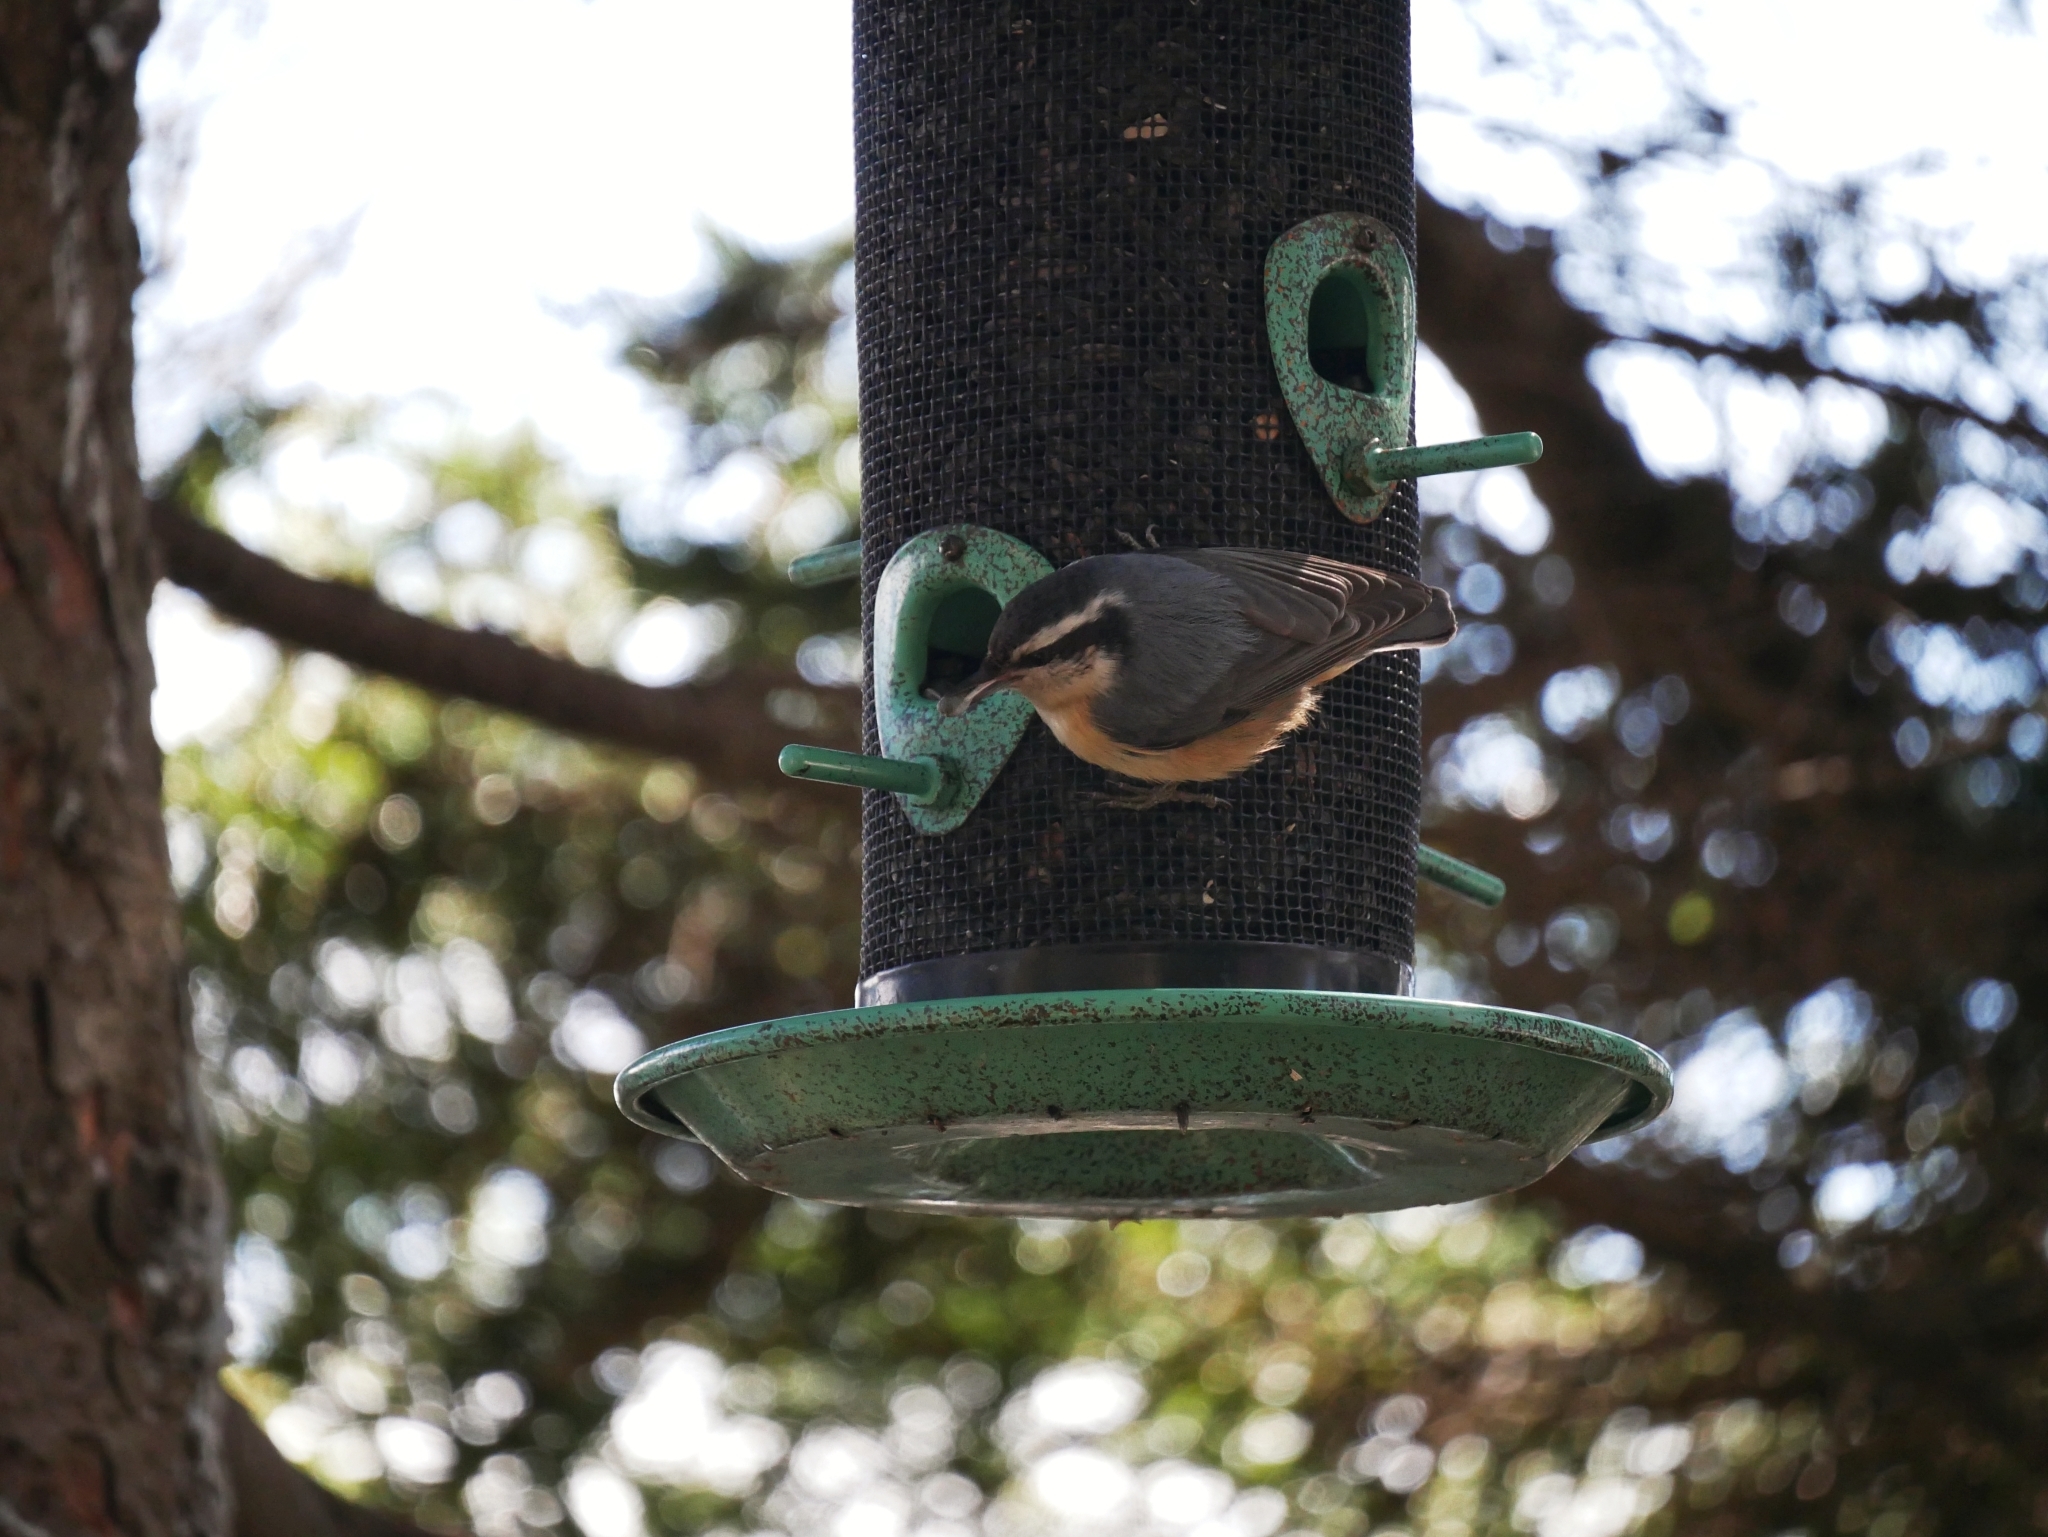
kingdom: Animalia
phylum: Chordata
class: Aves
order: Passeriformes
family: Sittidae
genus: Sitta
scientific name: Sitta canadensis
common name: Red-breasted nuthatch
